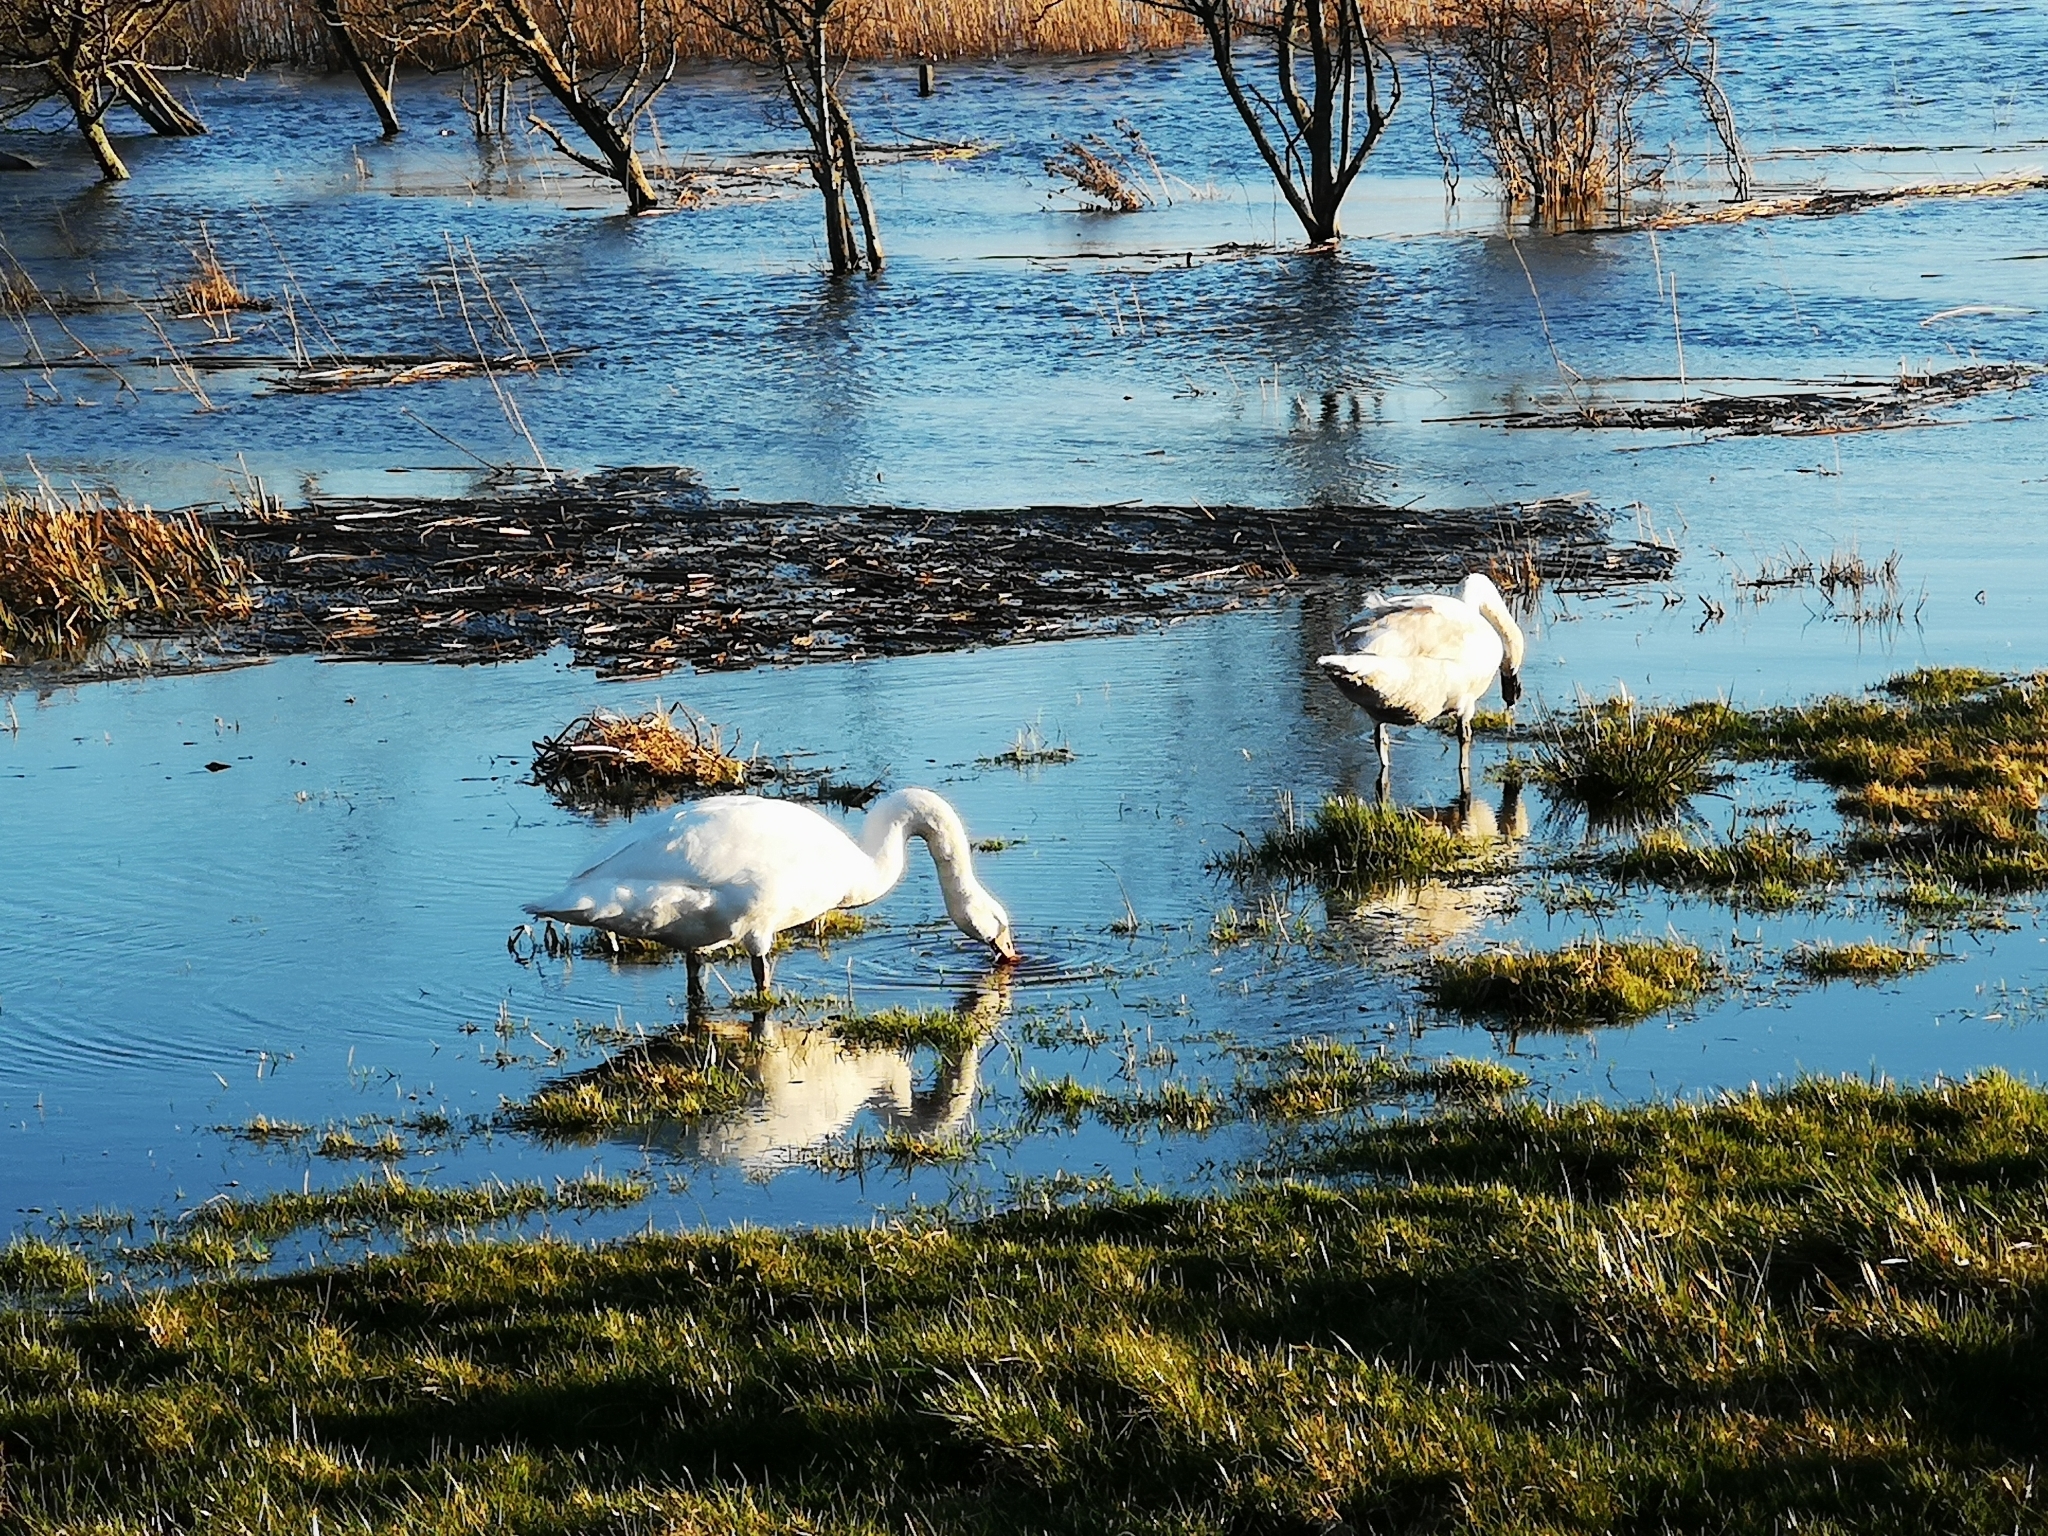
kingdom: Animalia
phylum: Chordata
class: Aves
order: Anseriformes
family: Anatidae
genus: Cygnus
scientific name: Cygnus olor
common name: Mute swan
